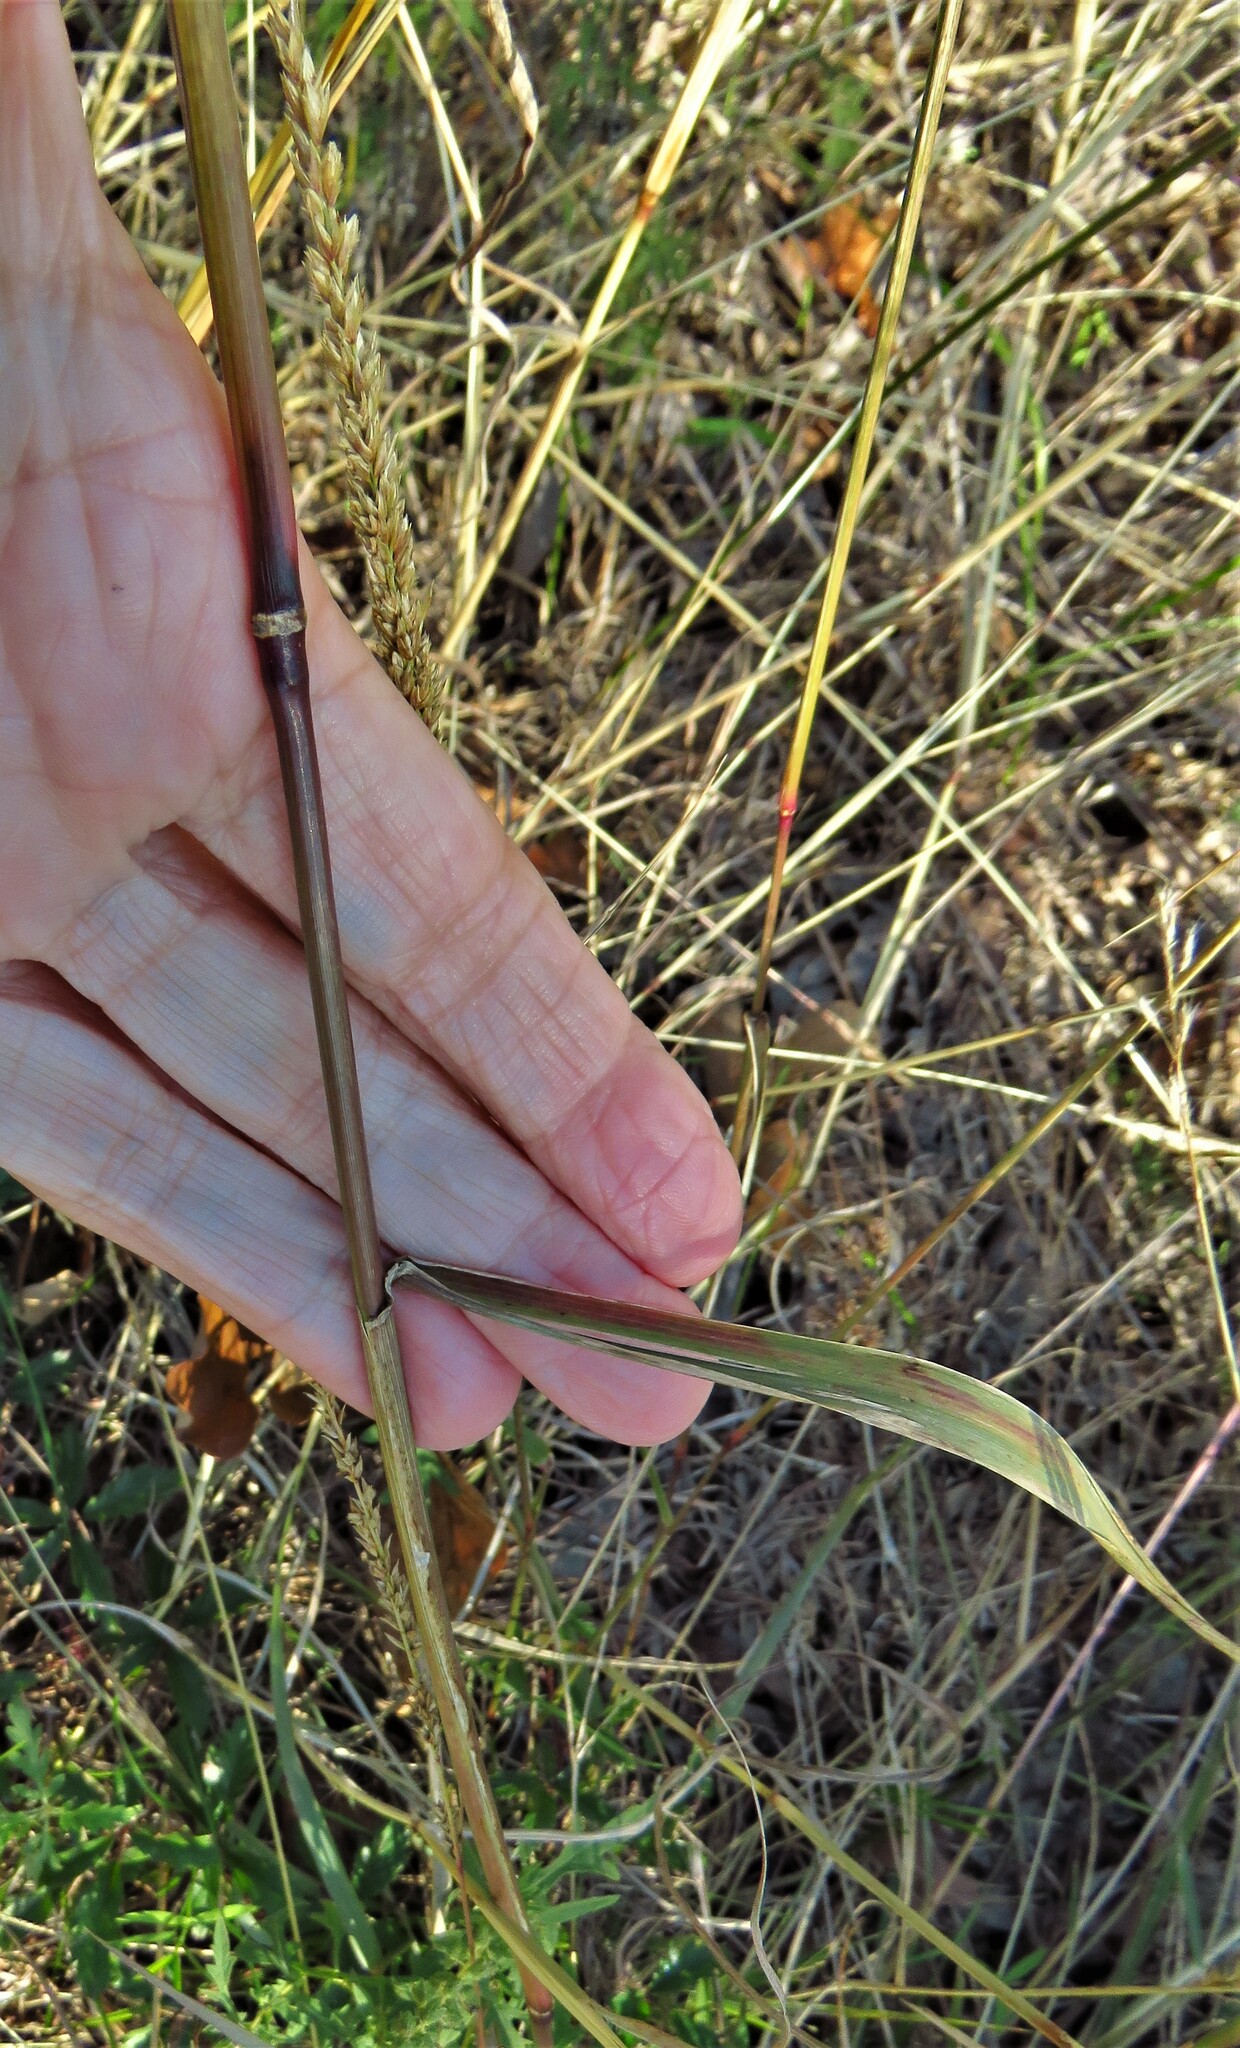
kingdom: Plantae
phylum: Tracheophyta
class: Liliopsida
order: Poales
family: Poaceae
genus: Tridens
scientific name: Tridens strictus
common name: Long-spike tridens
